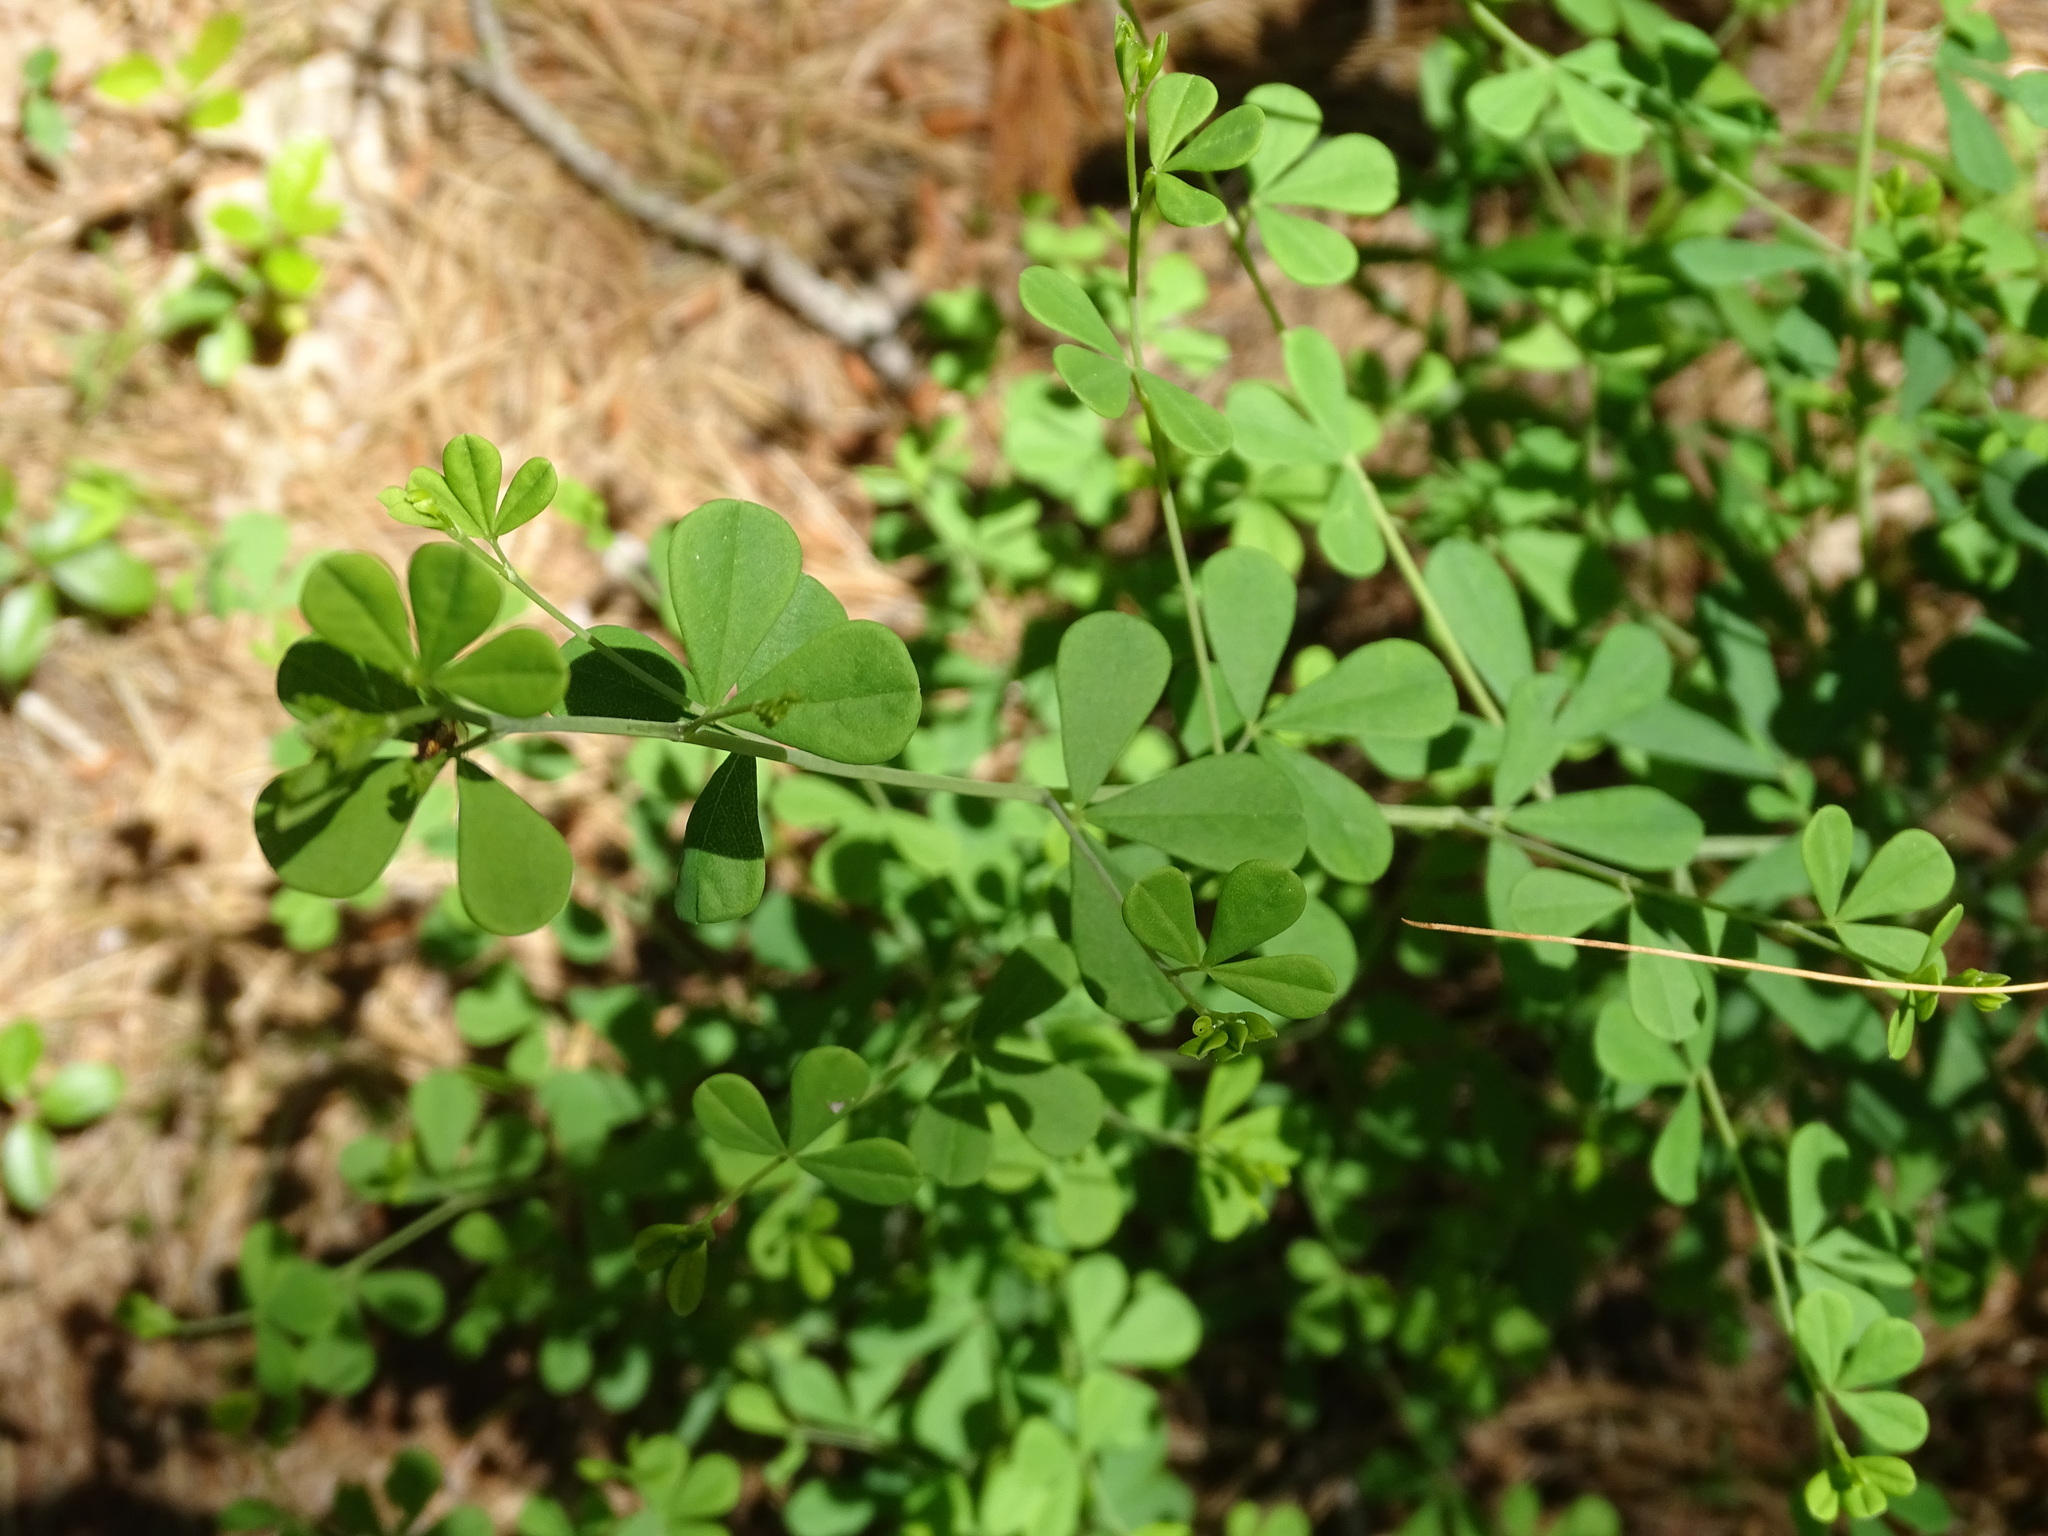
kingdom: Plantae
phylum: Tracheophyta
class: Magnoliopsida
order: Fabales
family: Fabaceae
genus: Baptisia
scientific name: Baptisia tinctoria
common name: Wild indigo
